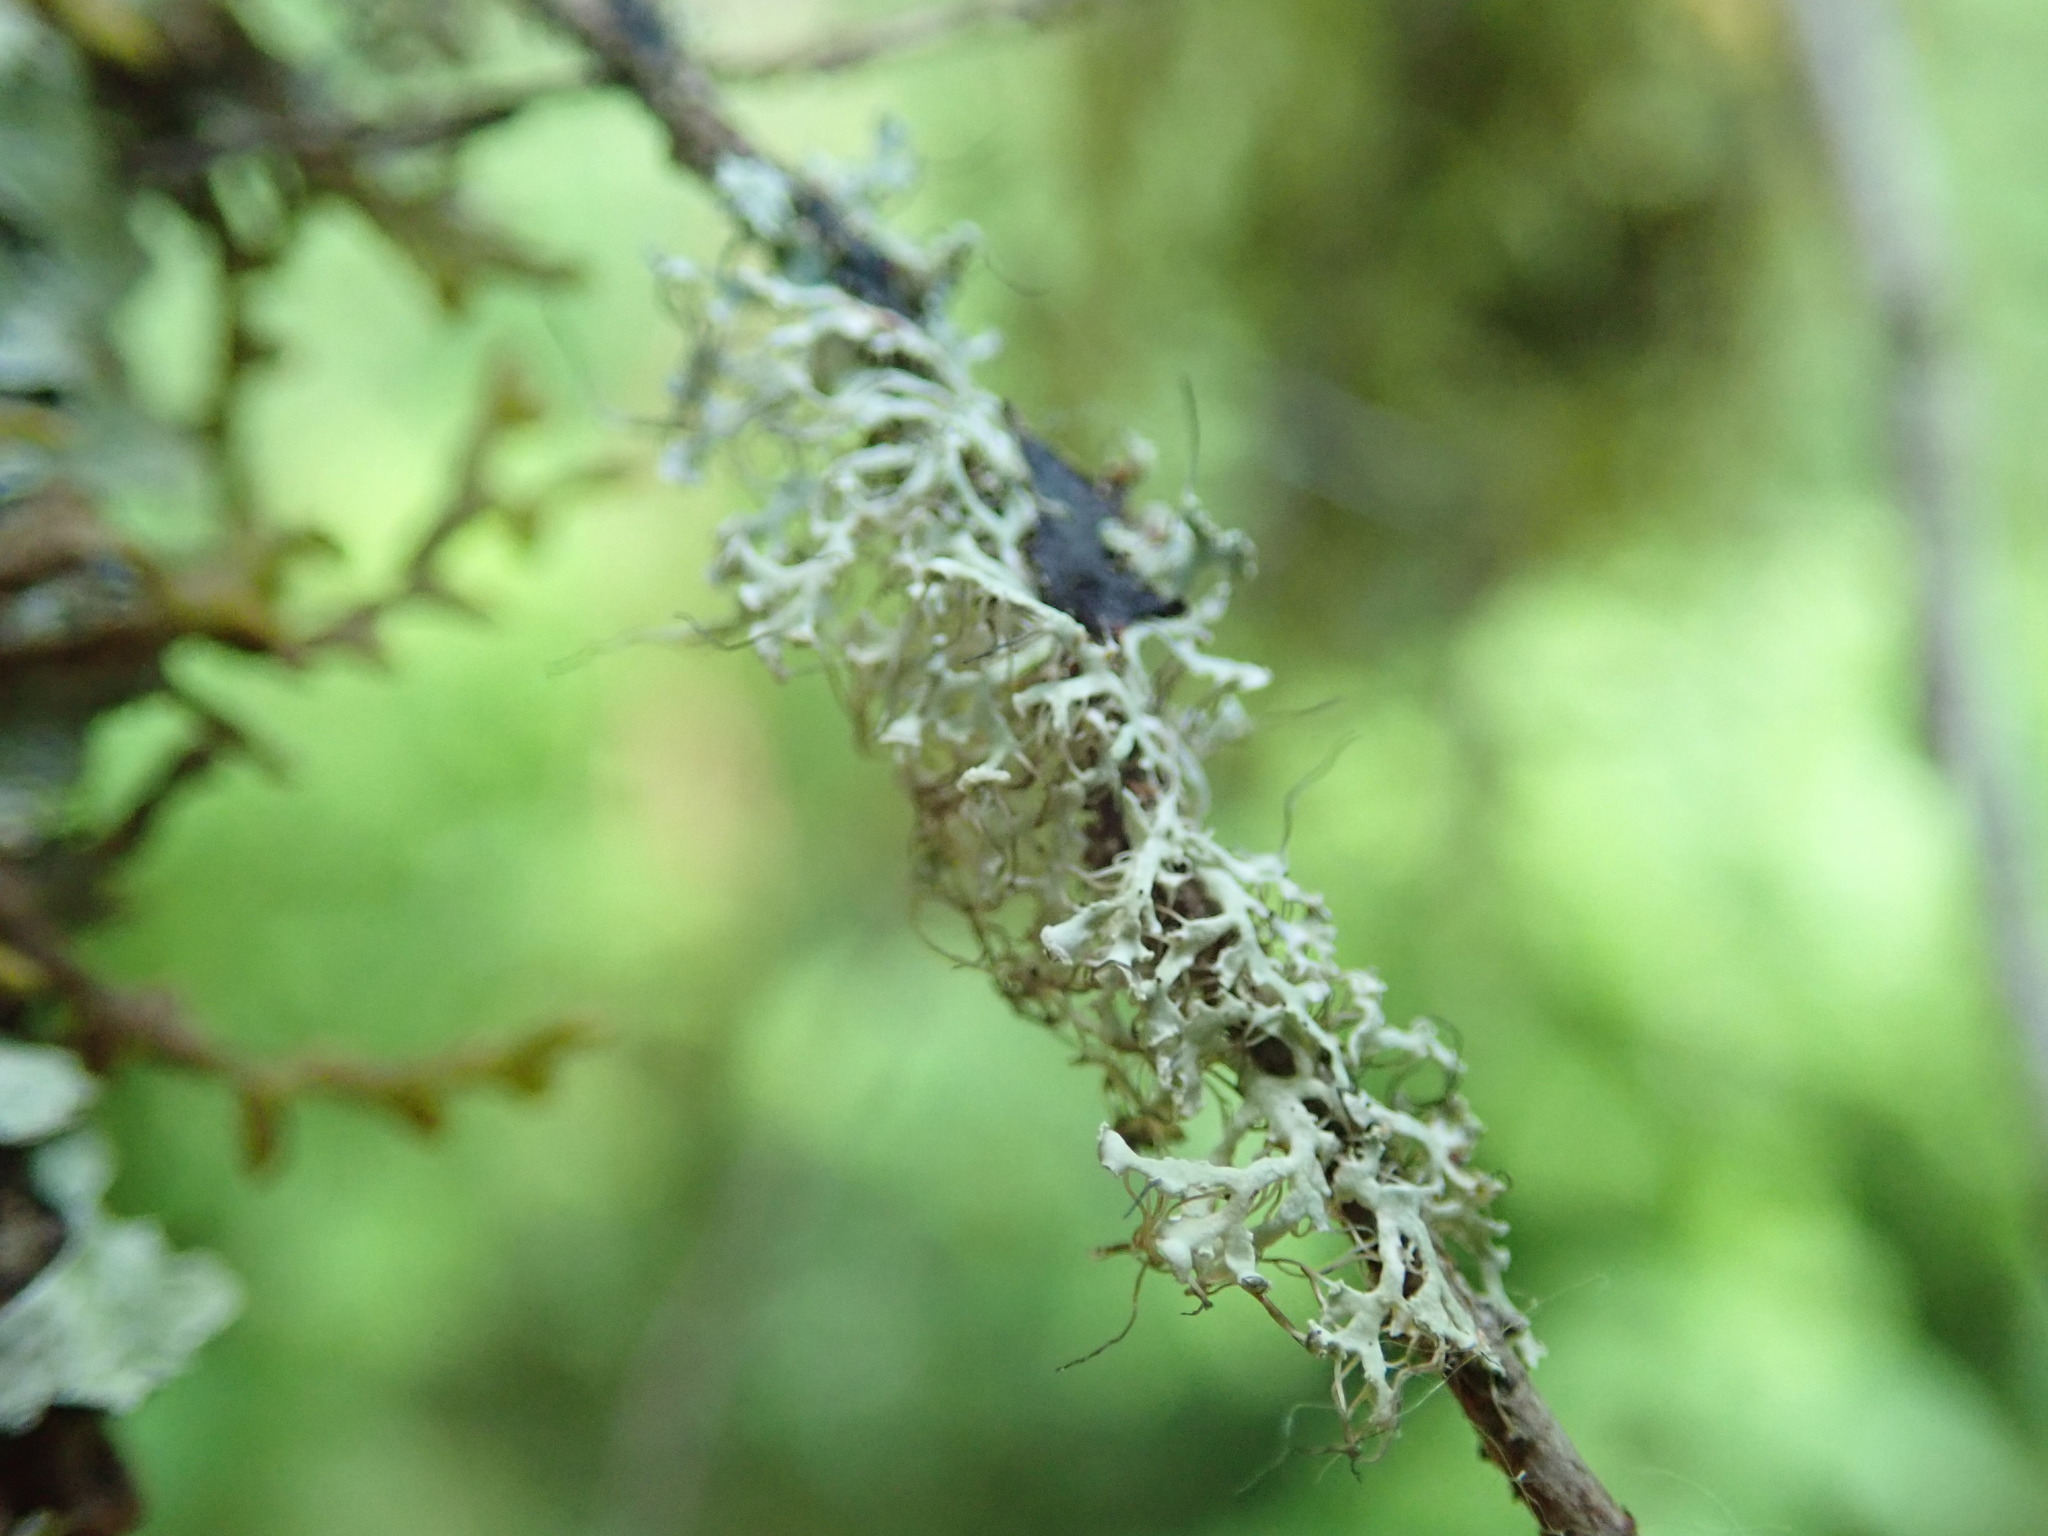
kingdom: Fungi
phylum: Ascomycota
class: Lecanoromycetes
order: Caliciales
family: Physciaceae
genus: Physcia
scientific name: Physcia tenella
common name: Fringed rosette lichen
